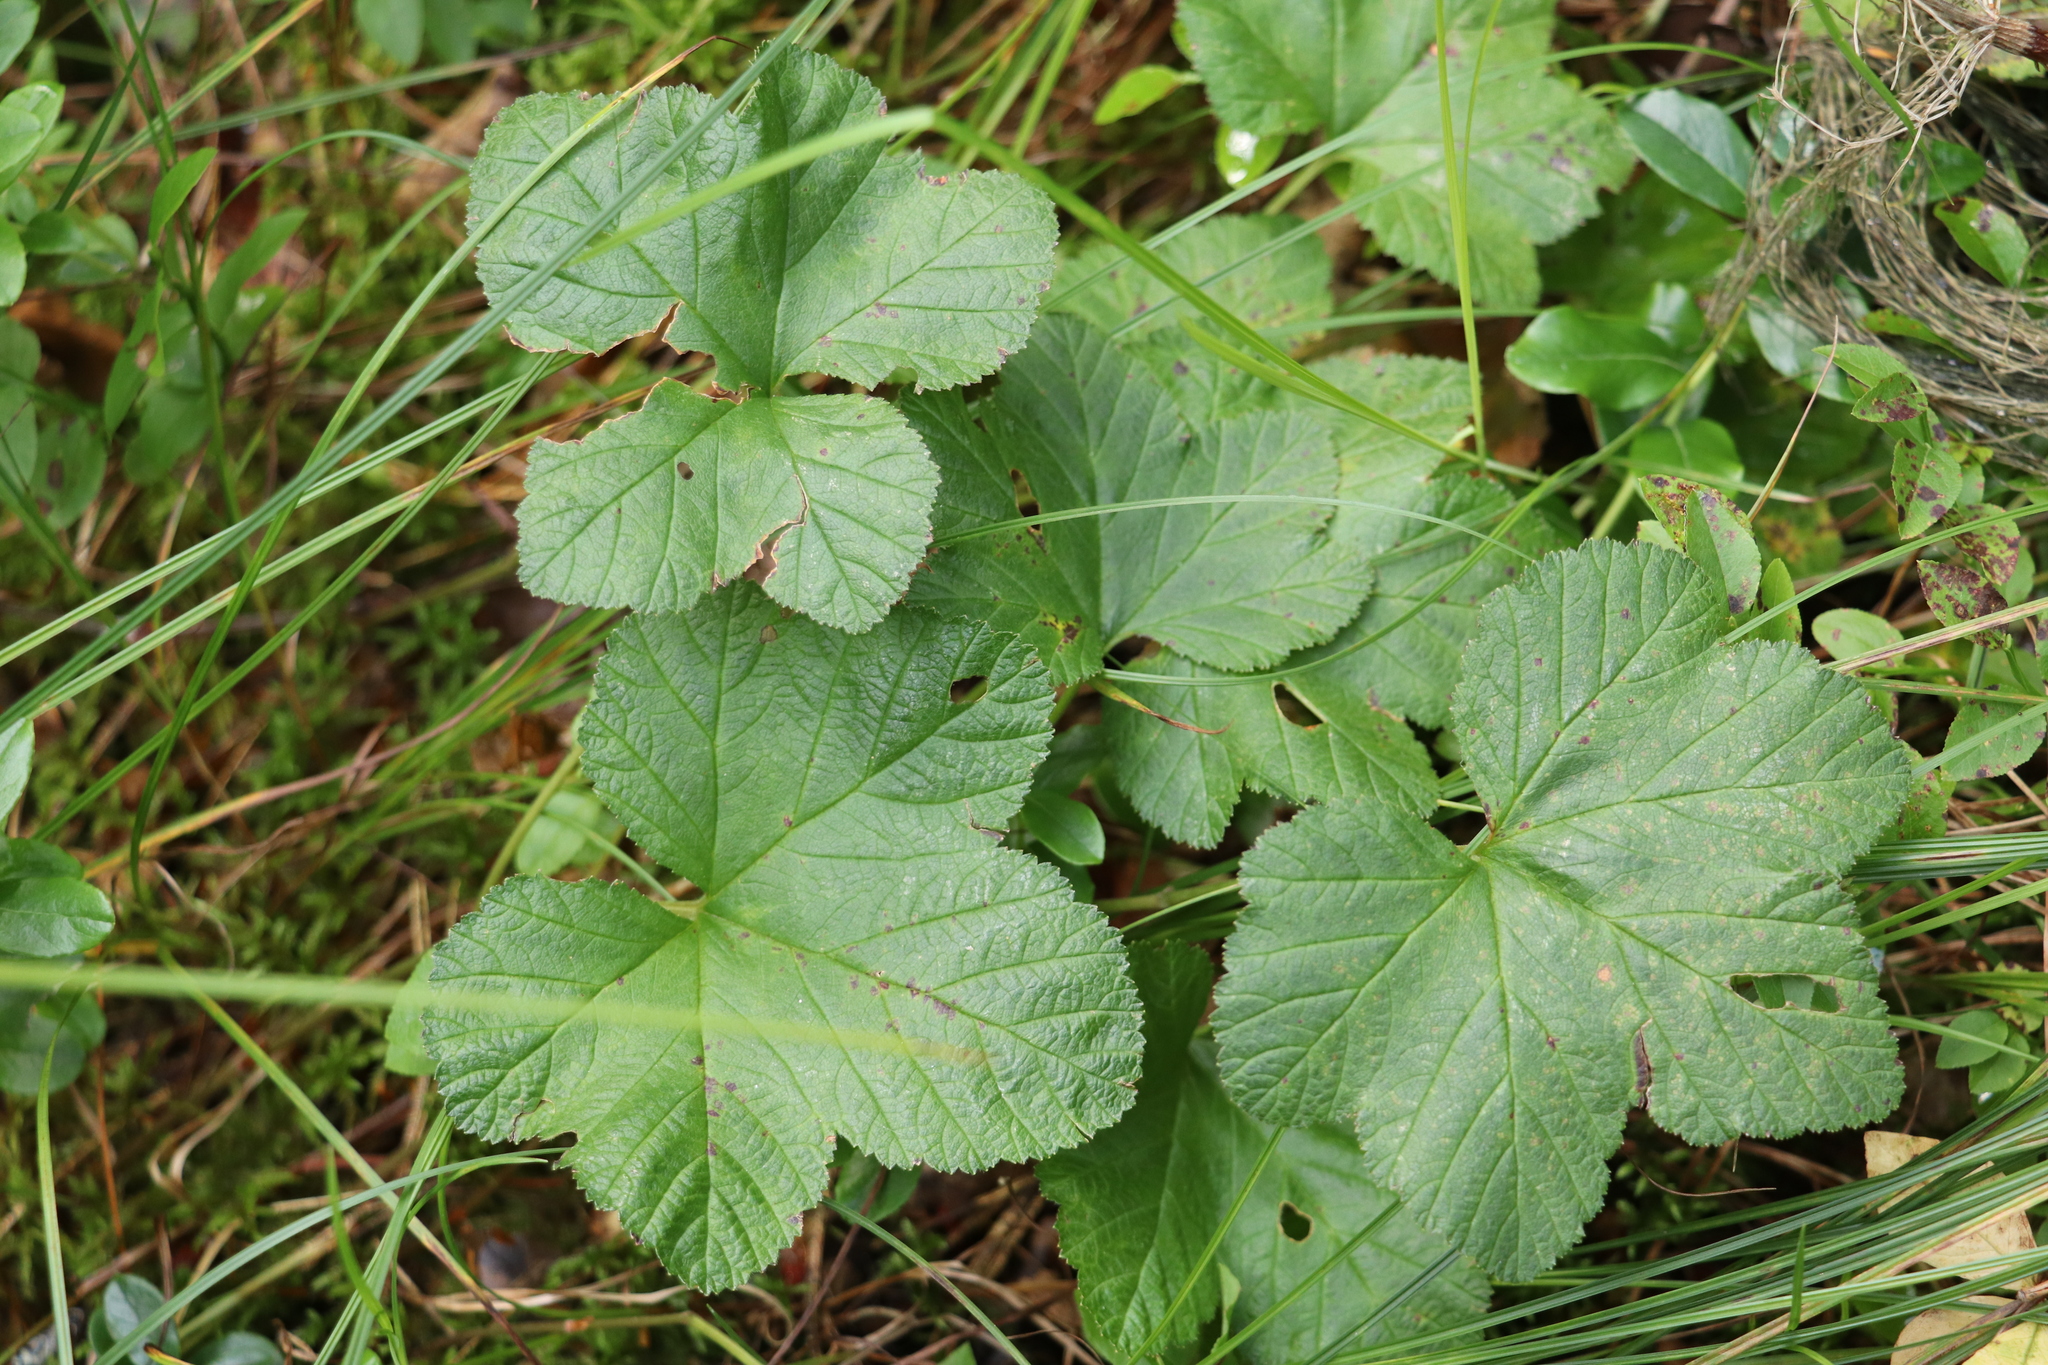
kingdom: Plantae
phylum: Tracheophyta
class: Magnoliopsida
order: Rosales
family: Rosaceae
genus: Rubus
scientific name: Rubus chamaemorus
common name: Cloudberry
